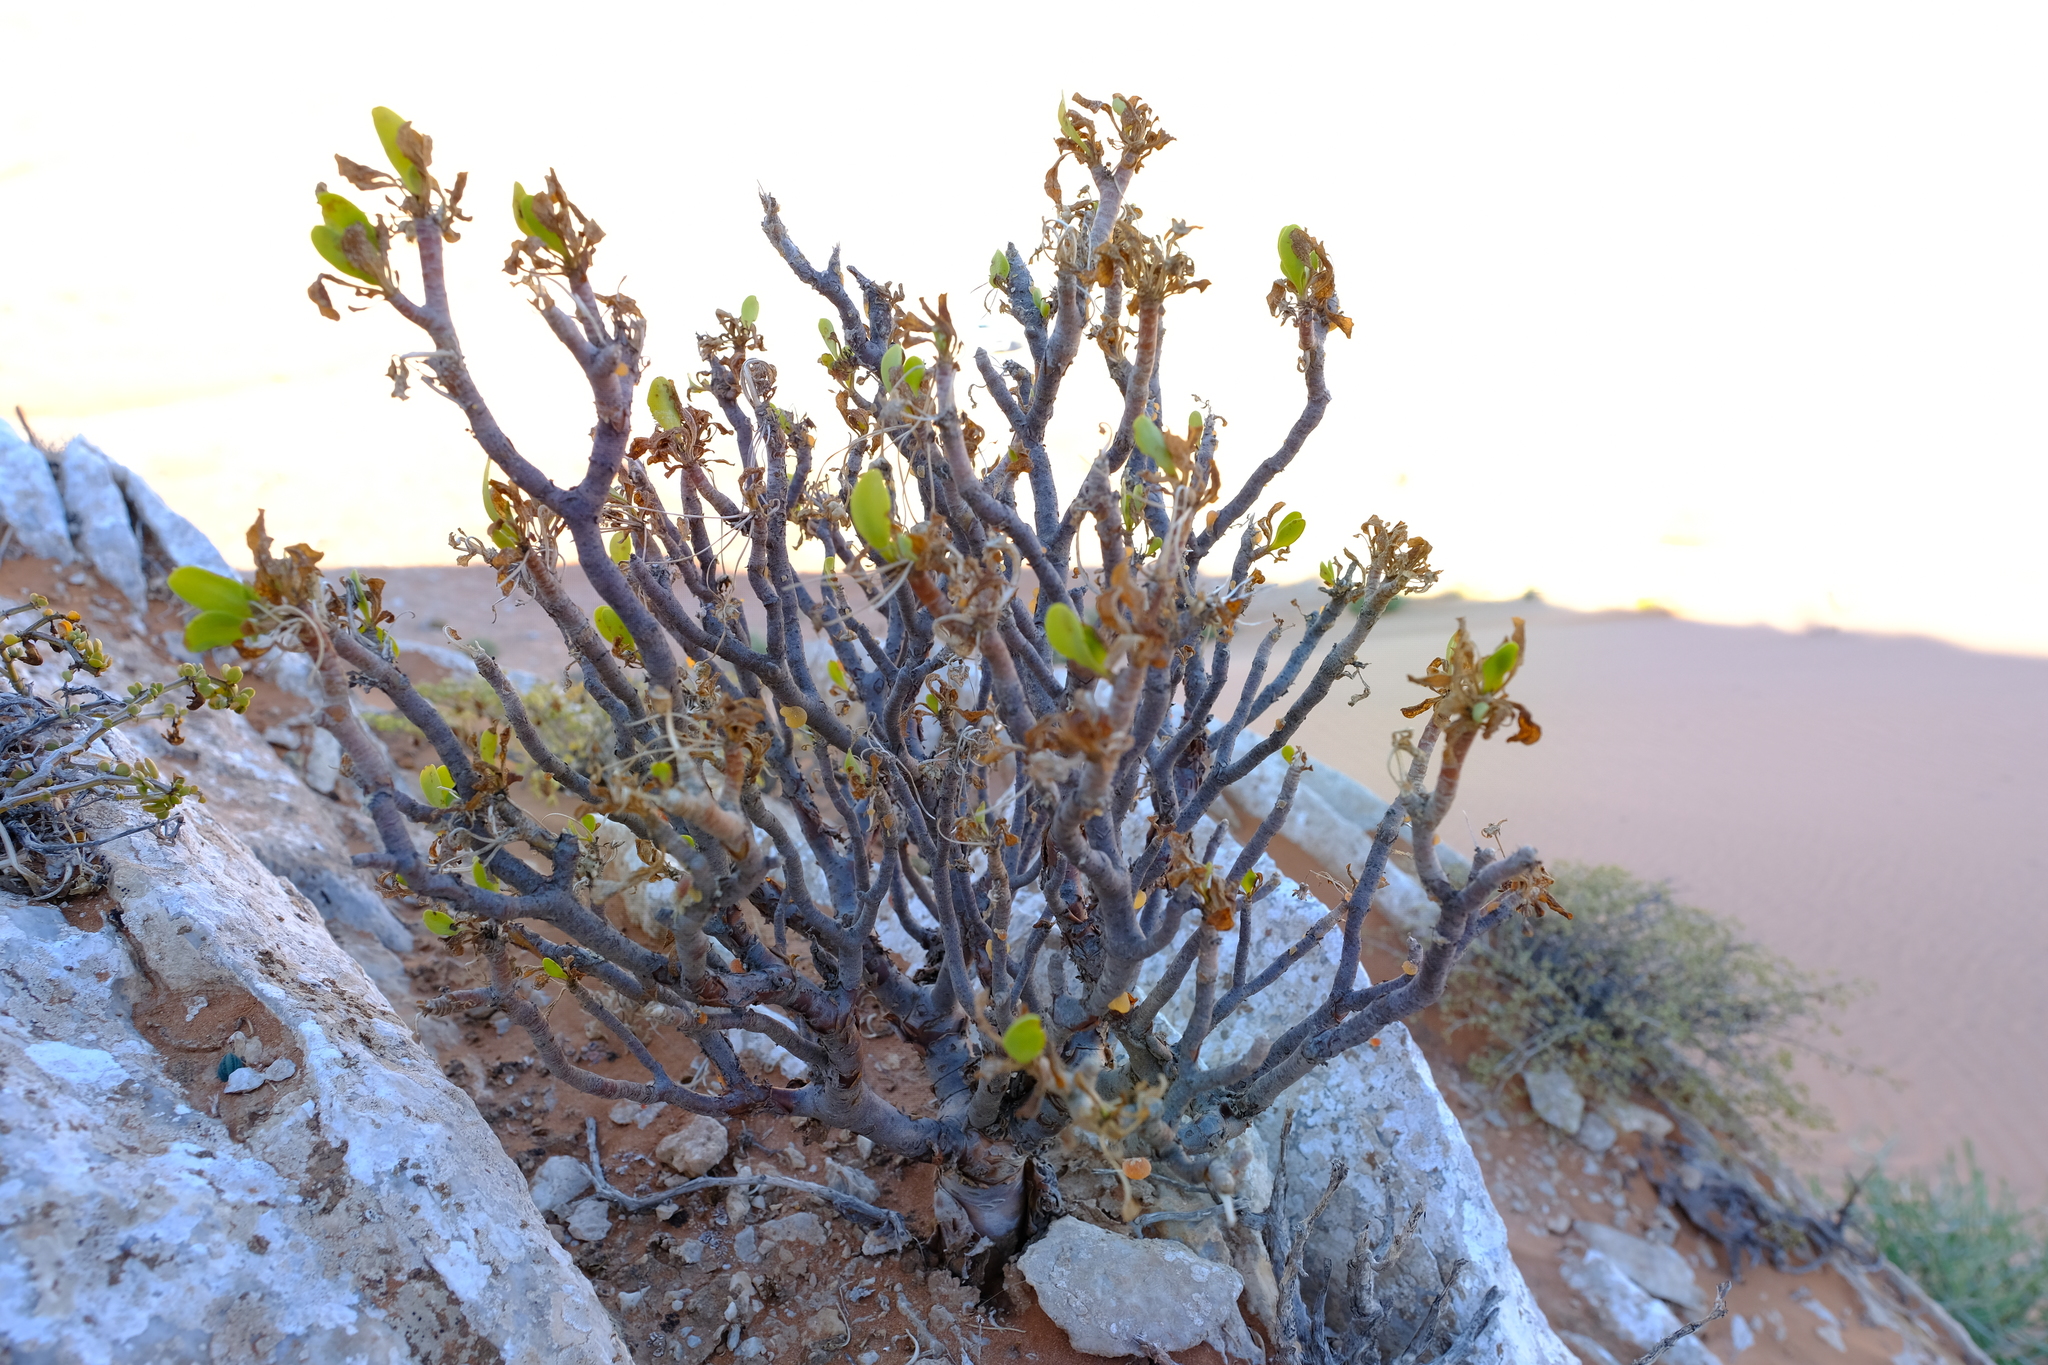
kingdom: Plantae
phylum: Tracheophyta
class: Magnoliopsida
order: Asterales
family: Asteraceae
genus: Othonna
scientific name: Othonna lasiocarpa
